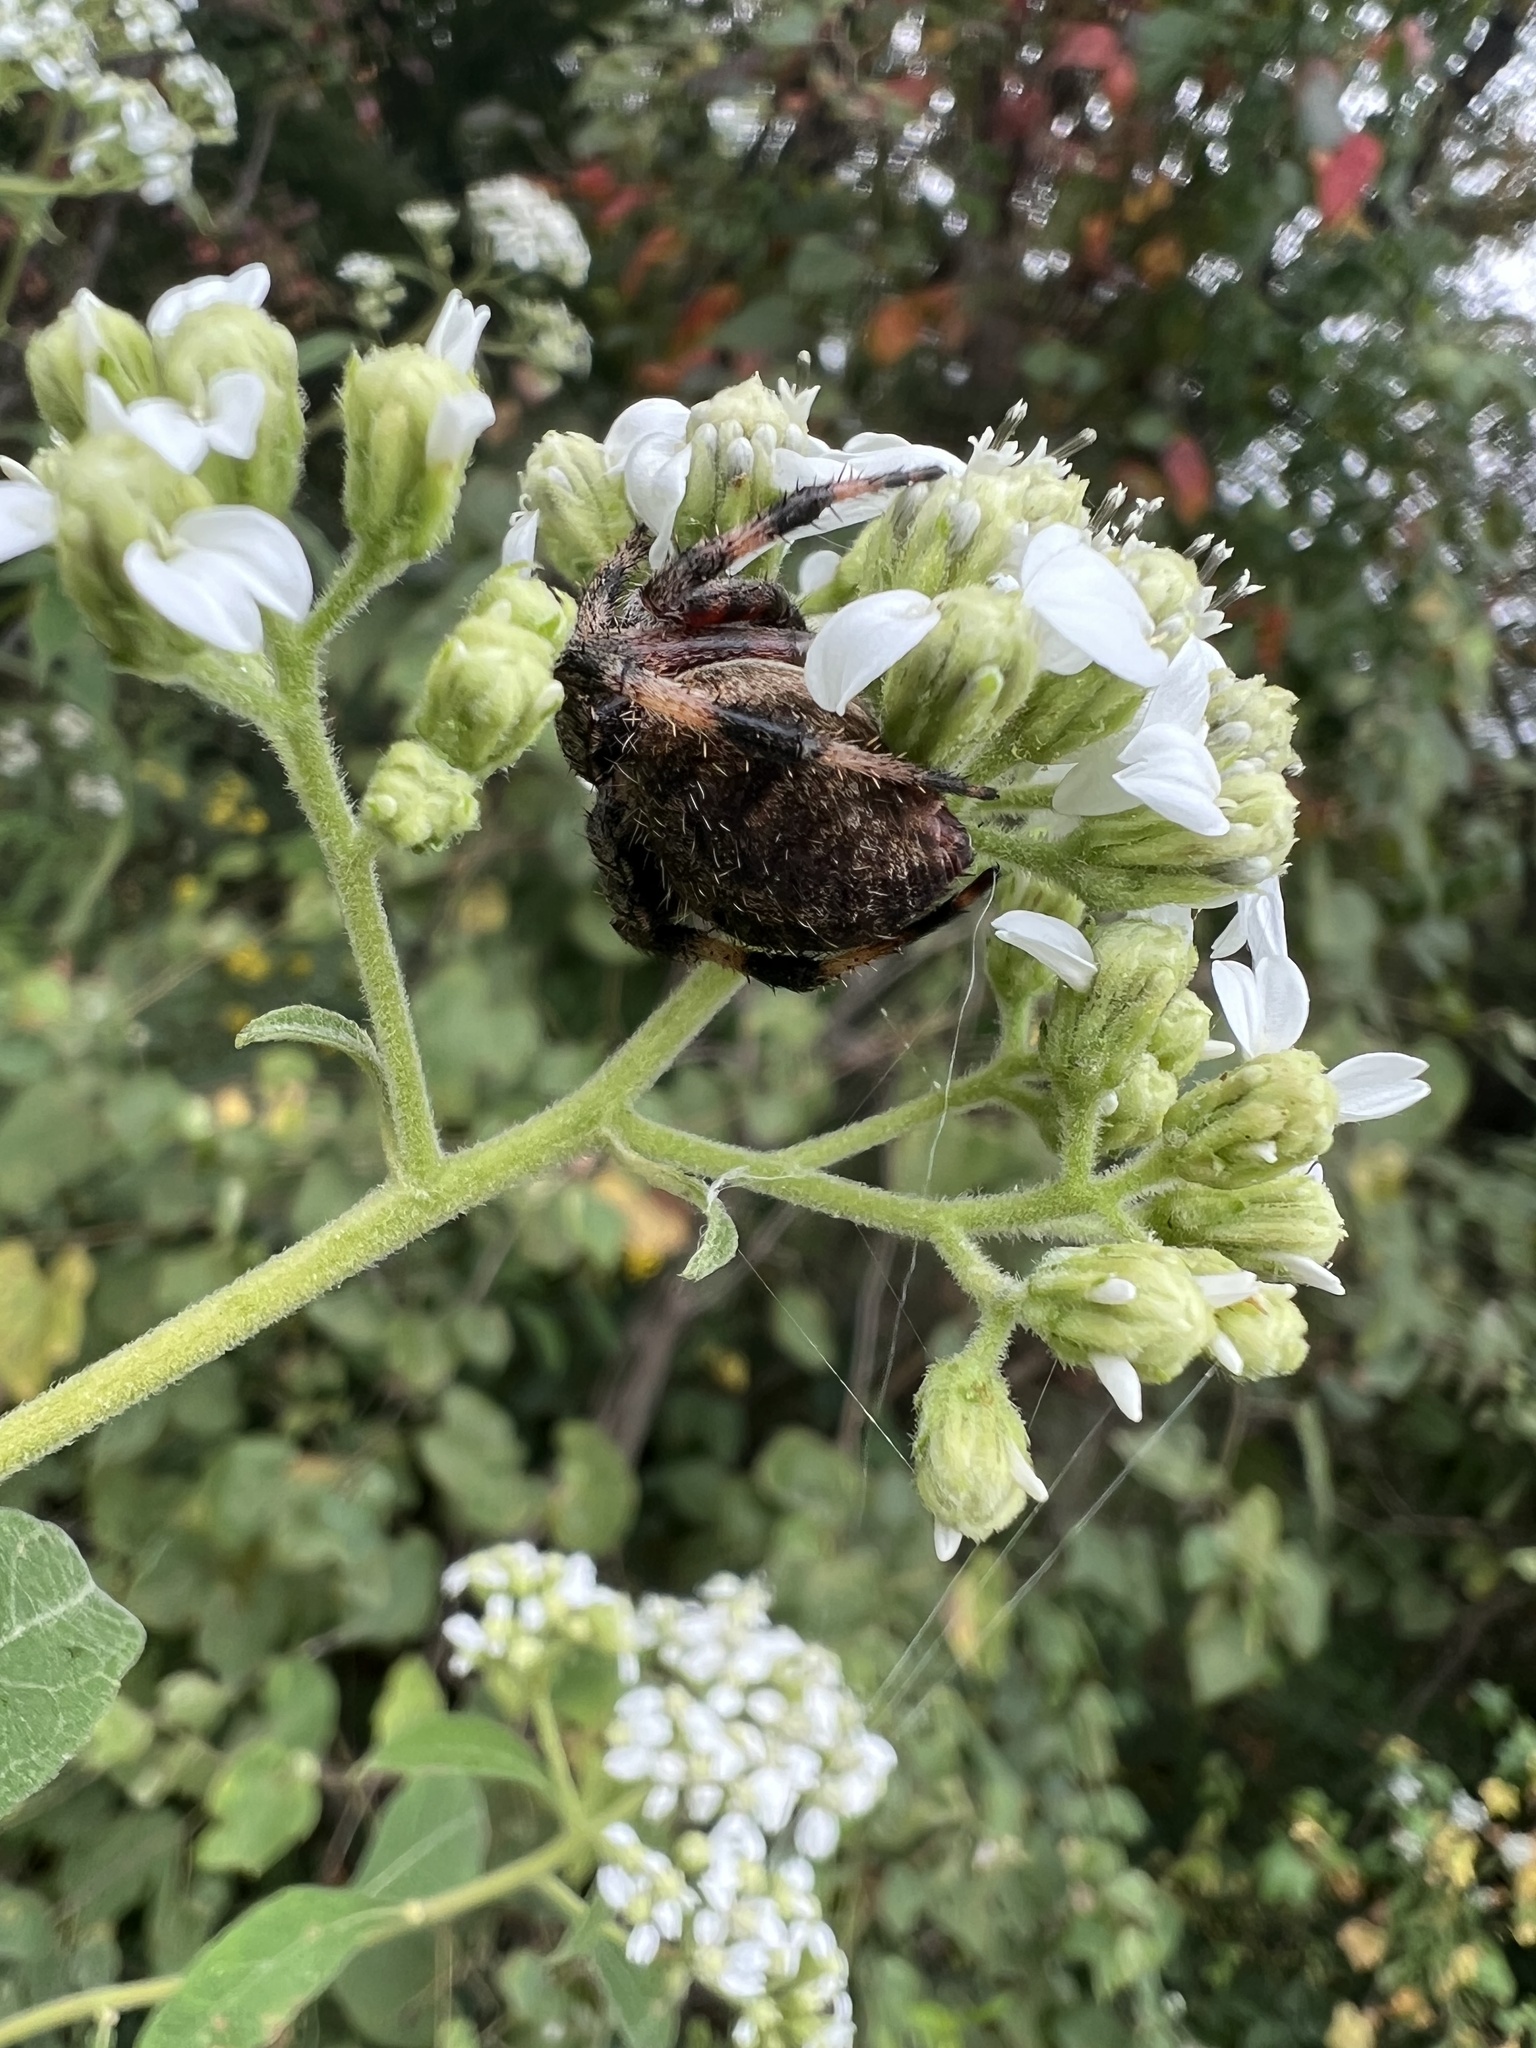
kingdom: Animalia
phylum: Arthropoda
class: Arachnida
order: Araneae
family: Araneidae
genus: Neoscona
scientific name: Neoscona crucifera
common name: Spotted orbweaver
